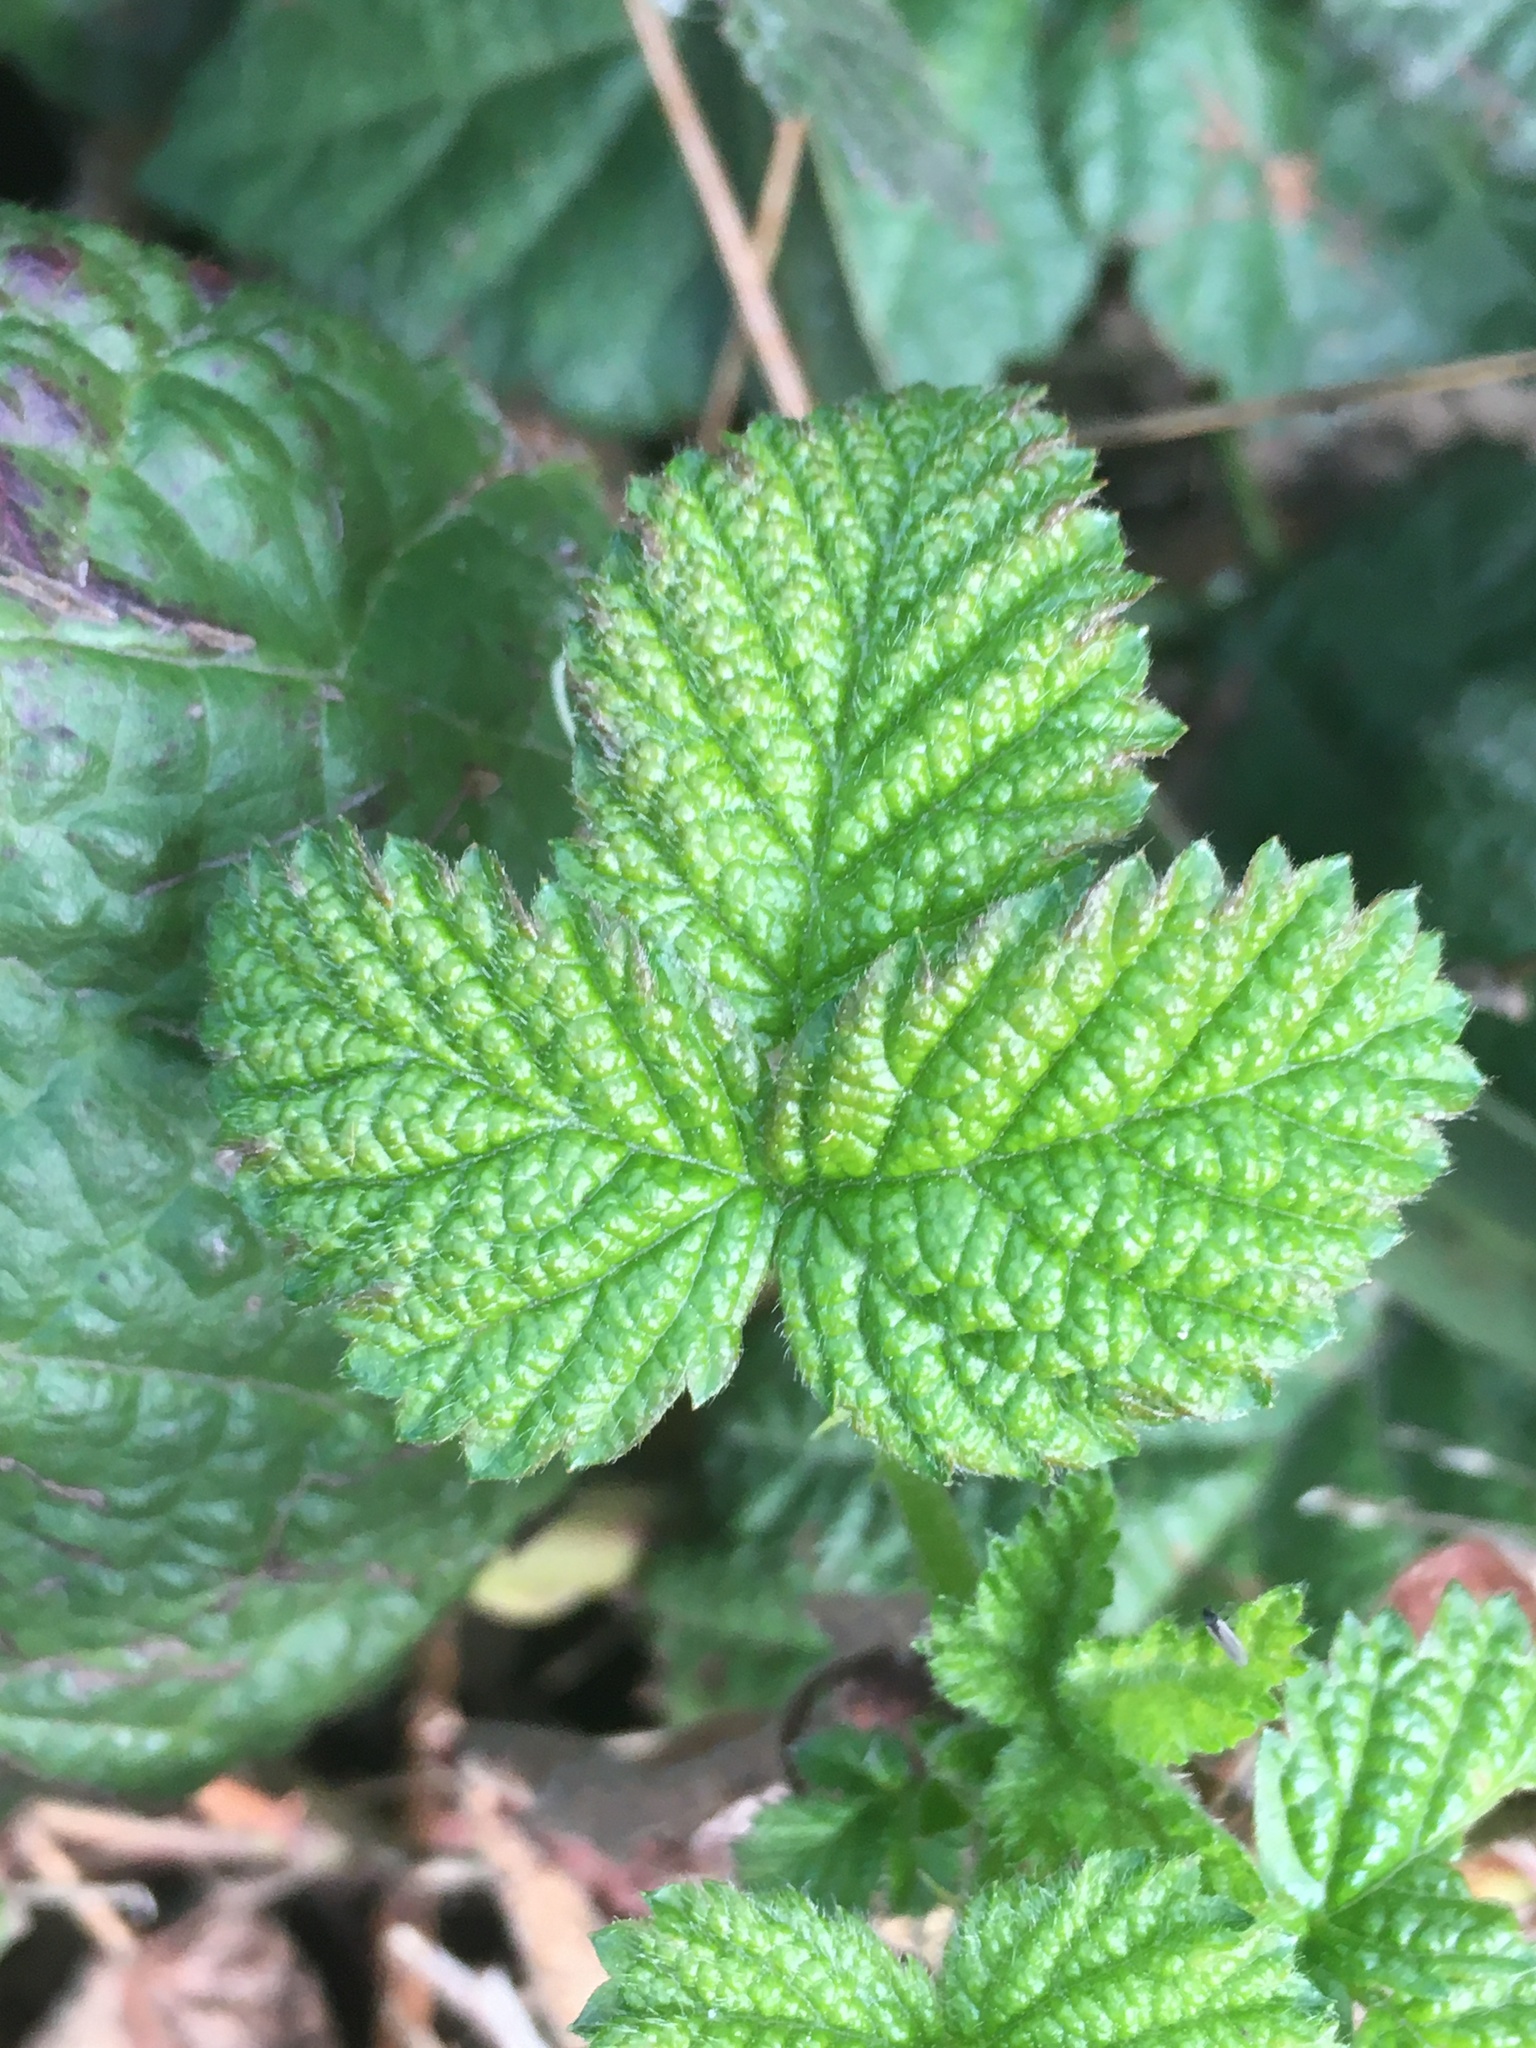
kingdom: Plantae
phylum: Tracheophyta
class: Magnoliopsida
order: Rosales
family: Rosaceae
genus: Rubus
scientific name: Rubus ursinus
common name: Pacific blackberry
